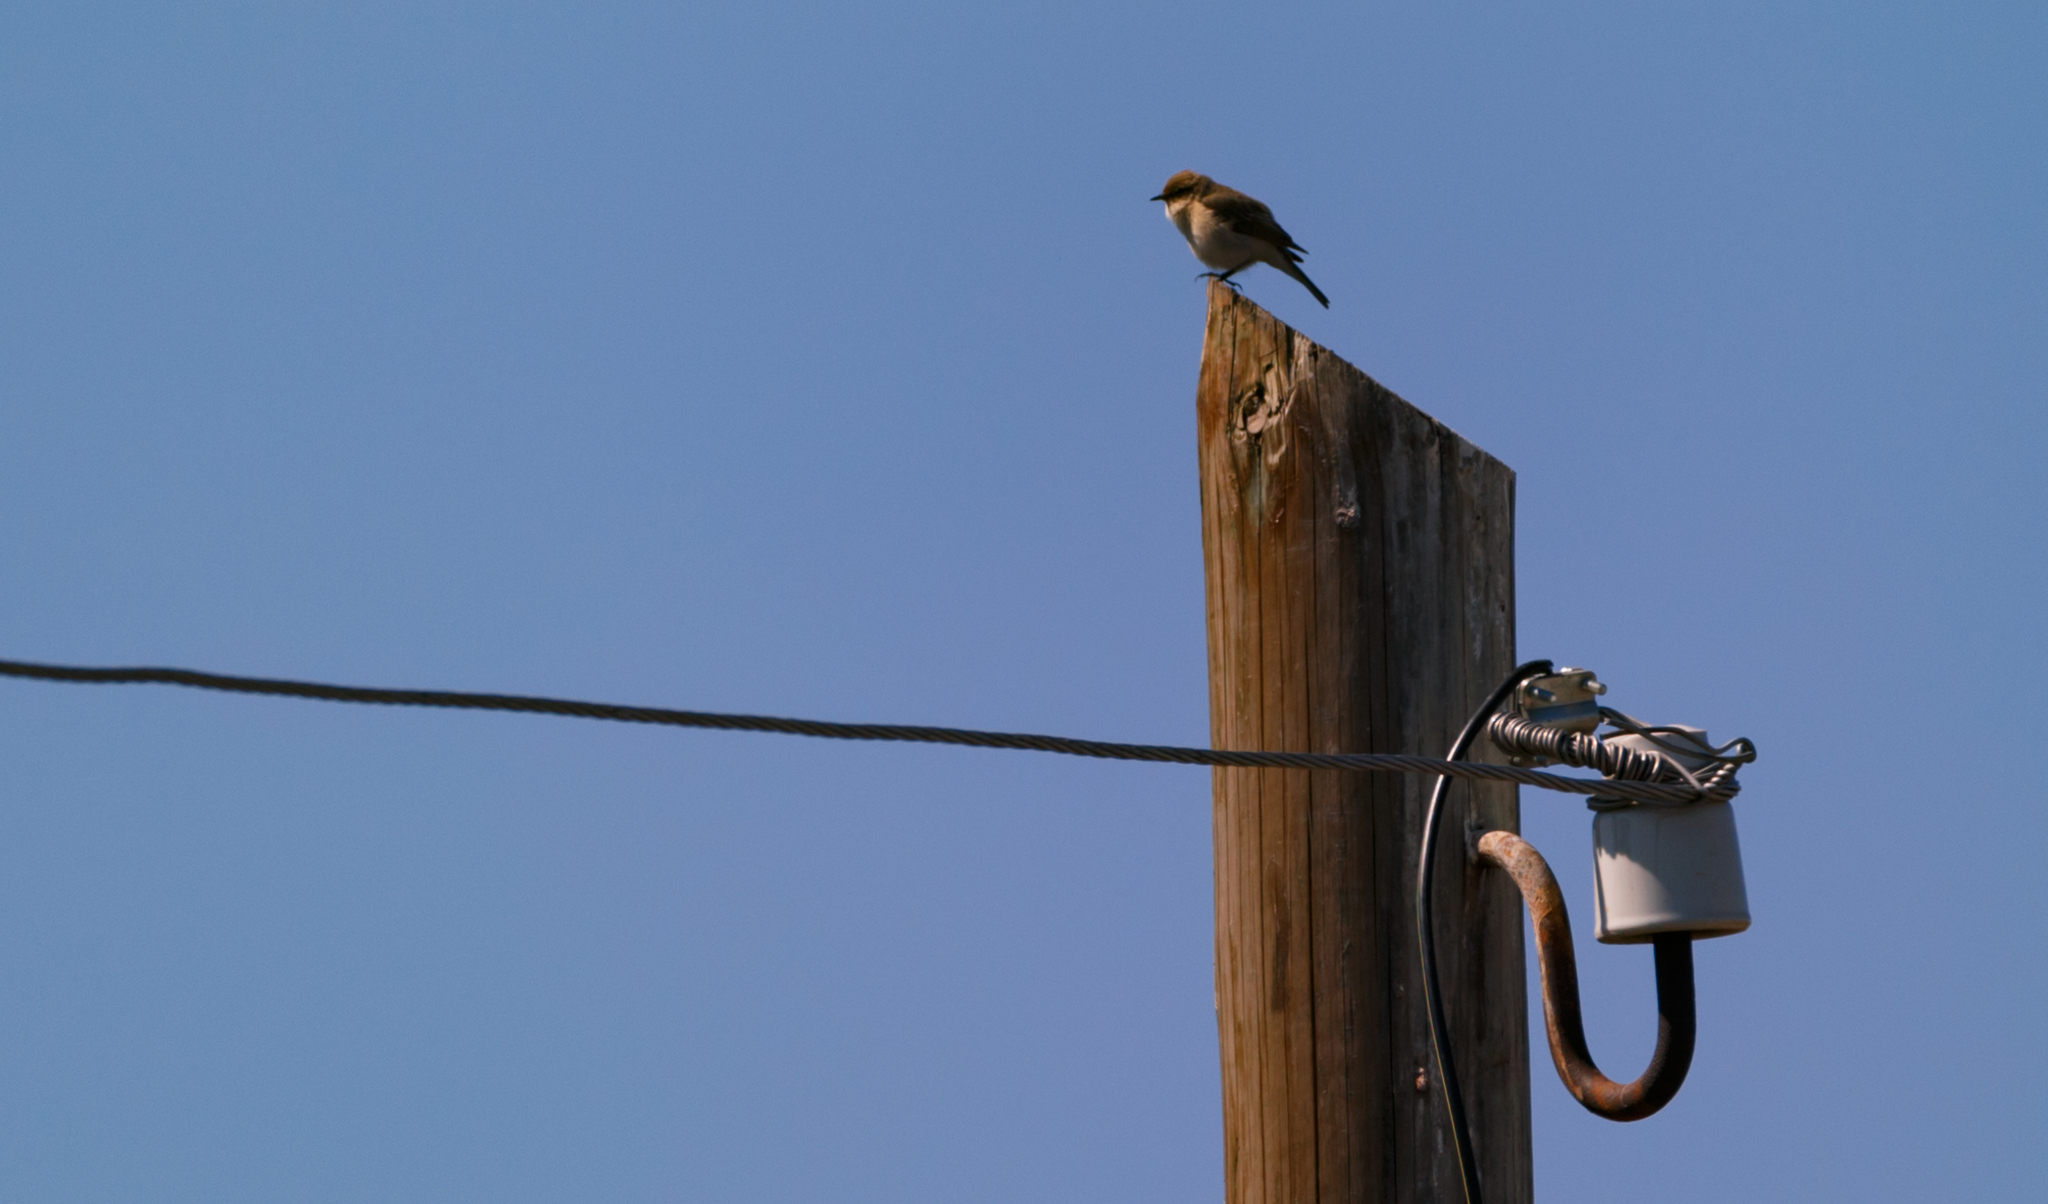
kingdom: Animalia
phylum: Chordata
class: Aves
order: Passeriformes
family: Phylloscopidae
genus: Phylloscopus
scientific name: Phylloscopus collybita
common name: Common chiffchaff
